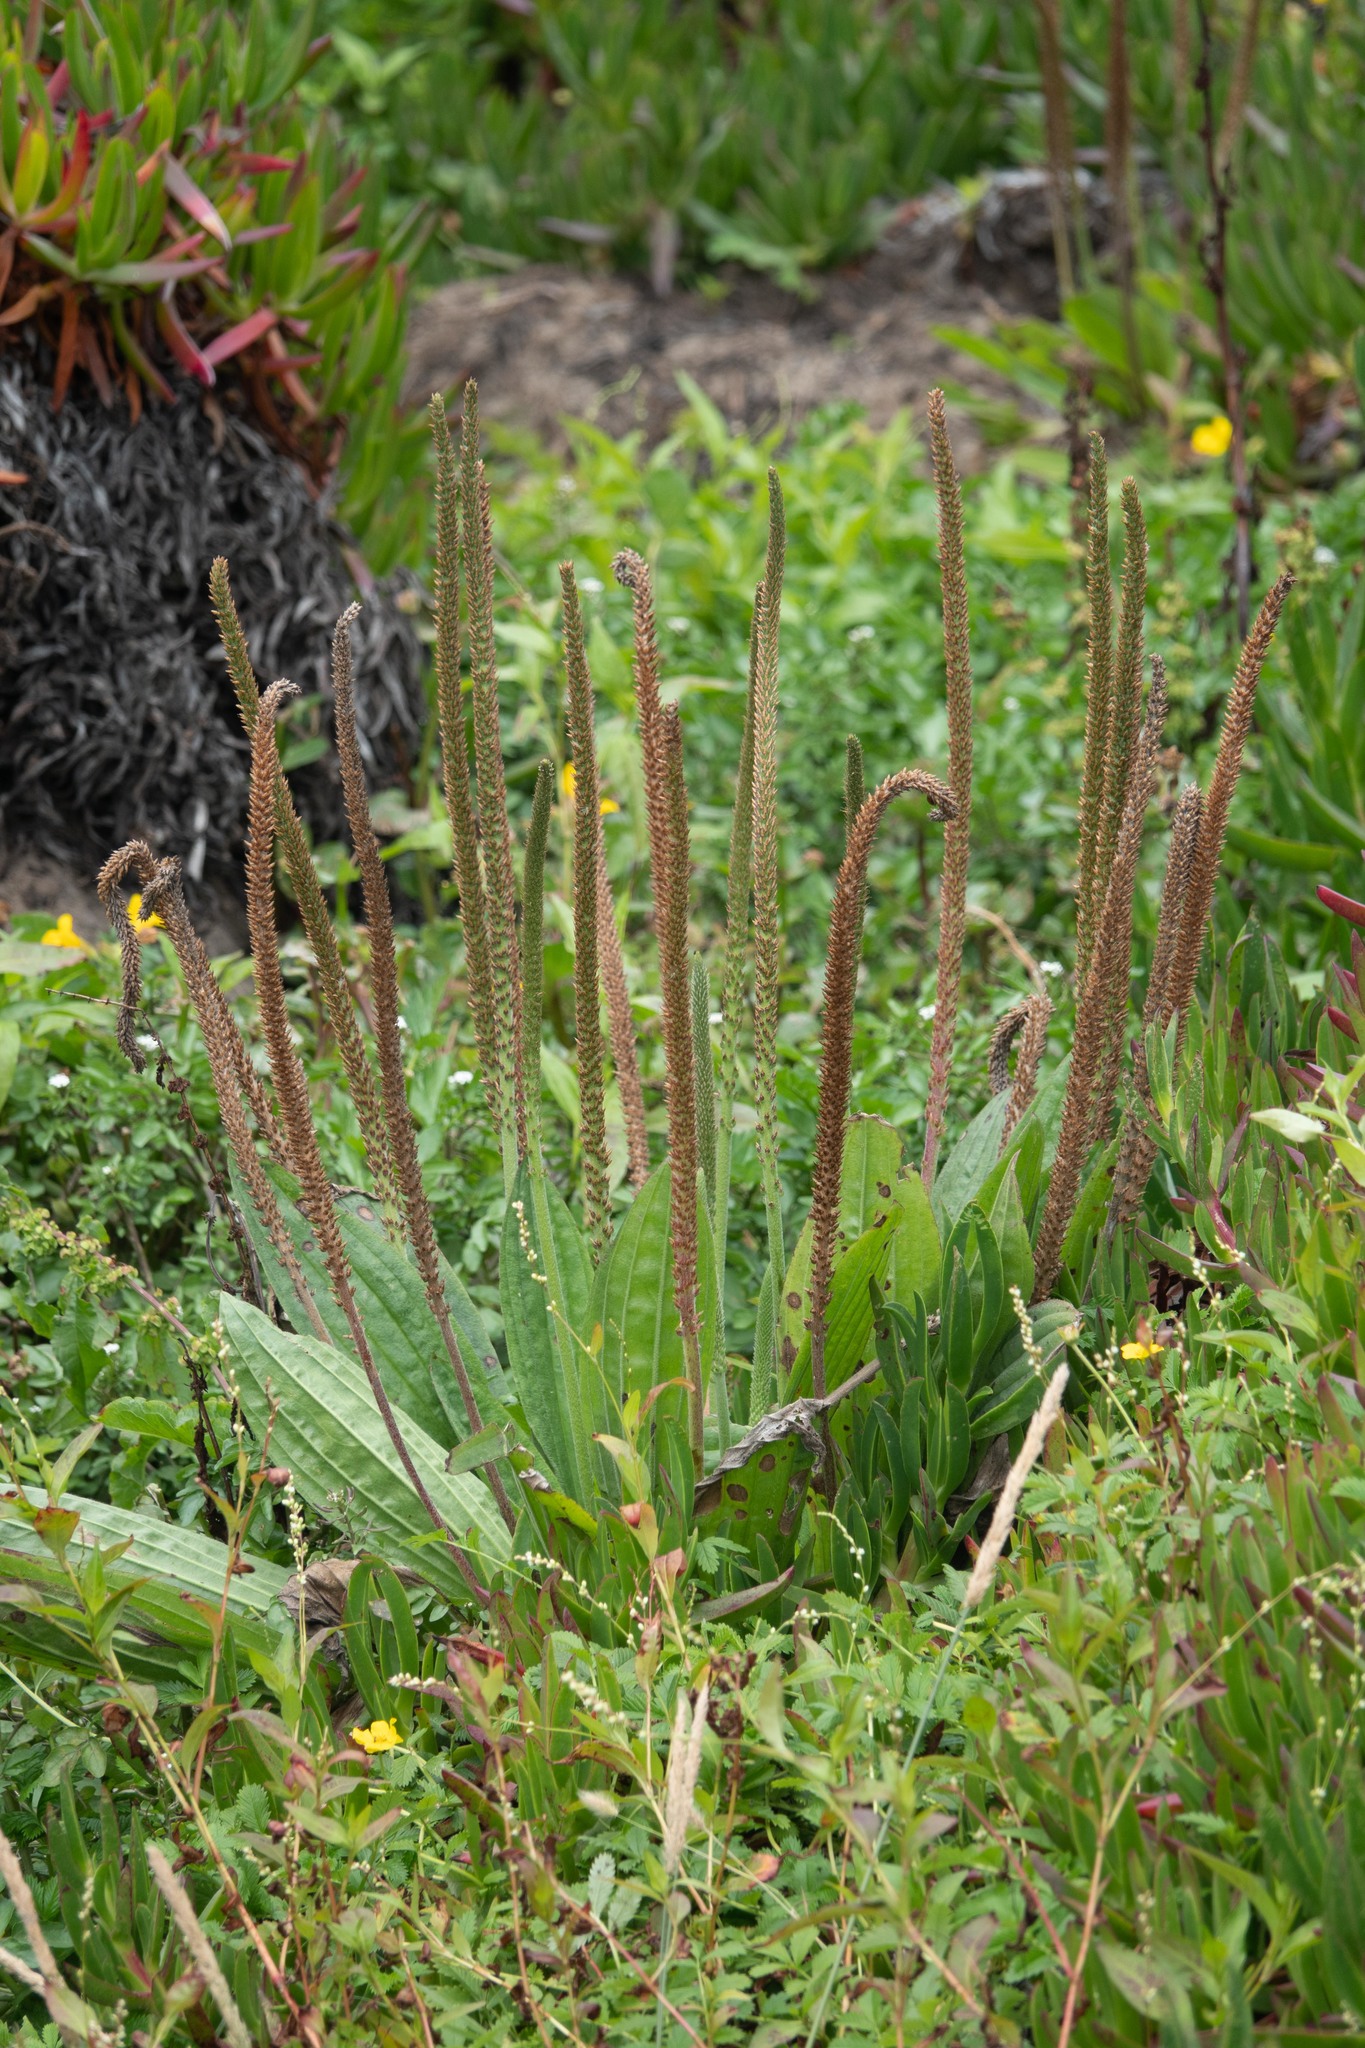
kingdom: Plantae
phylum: Tracheophyta
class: Magnoliopsida
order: Lamiales
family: Plantaginaceae
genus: Plantago
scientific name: Plantago major
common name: Common plantain
